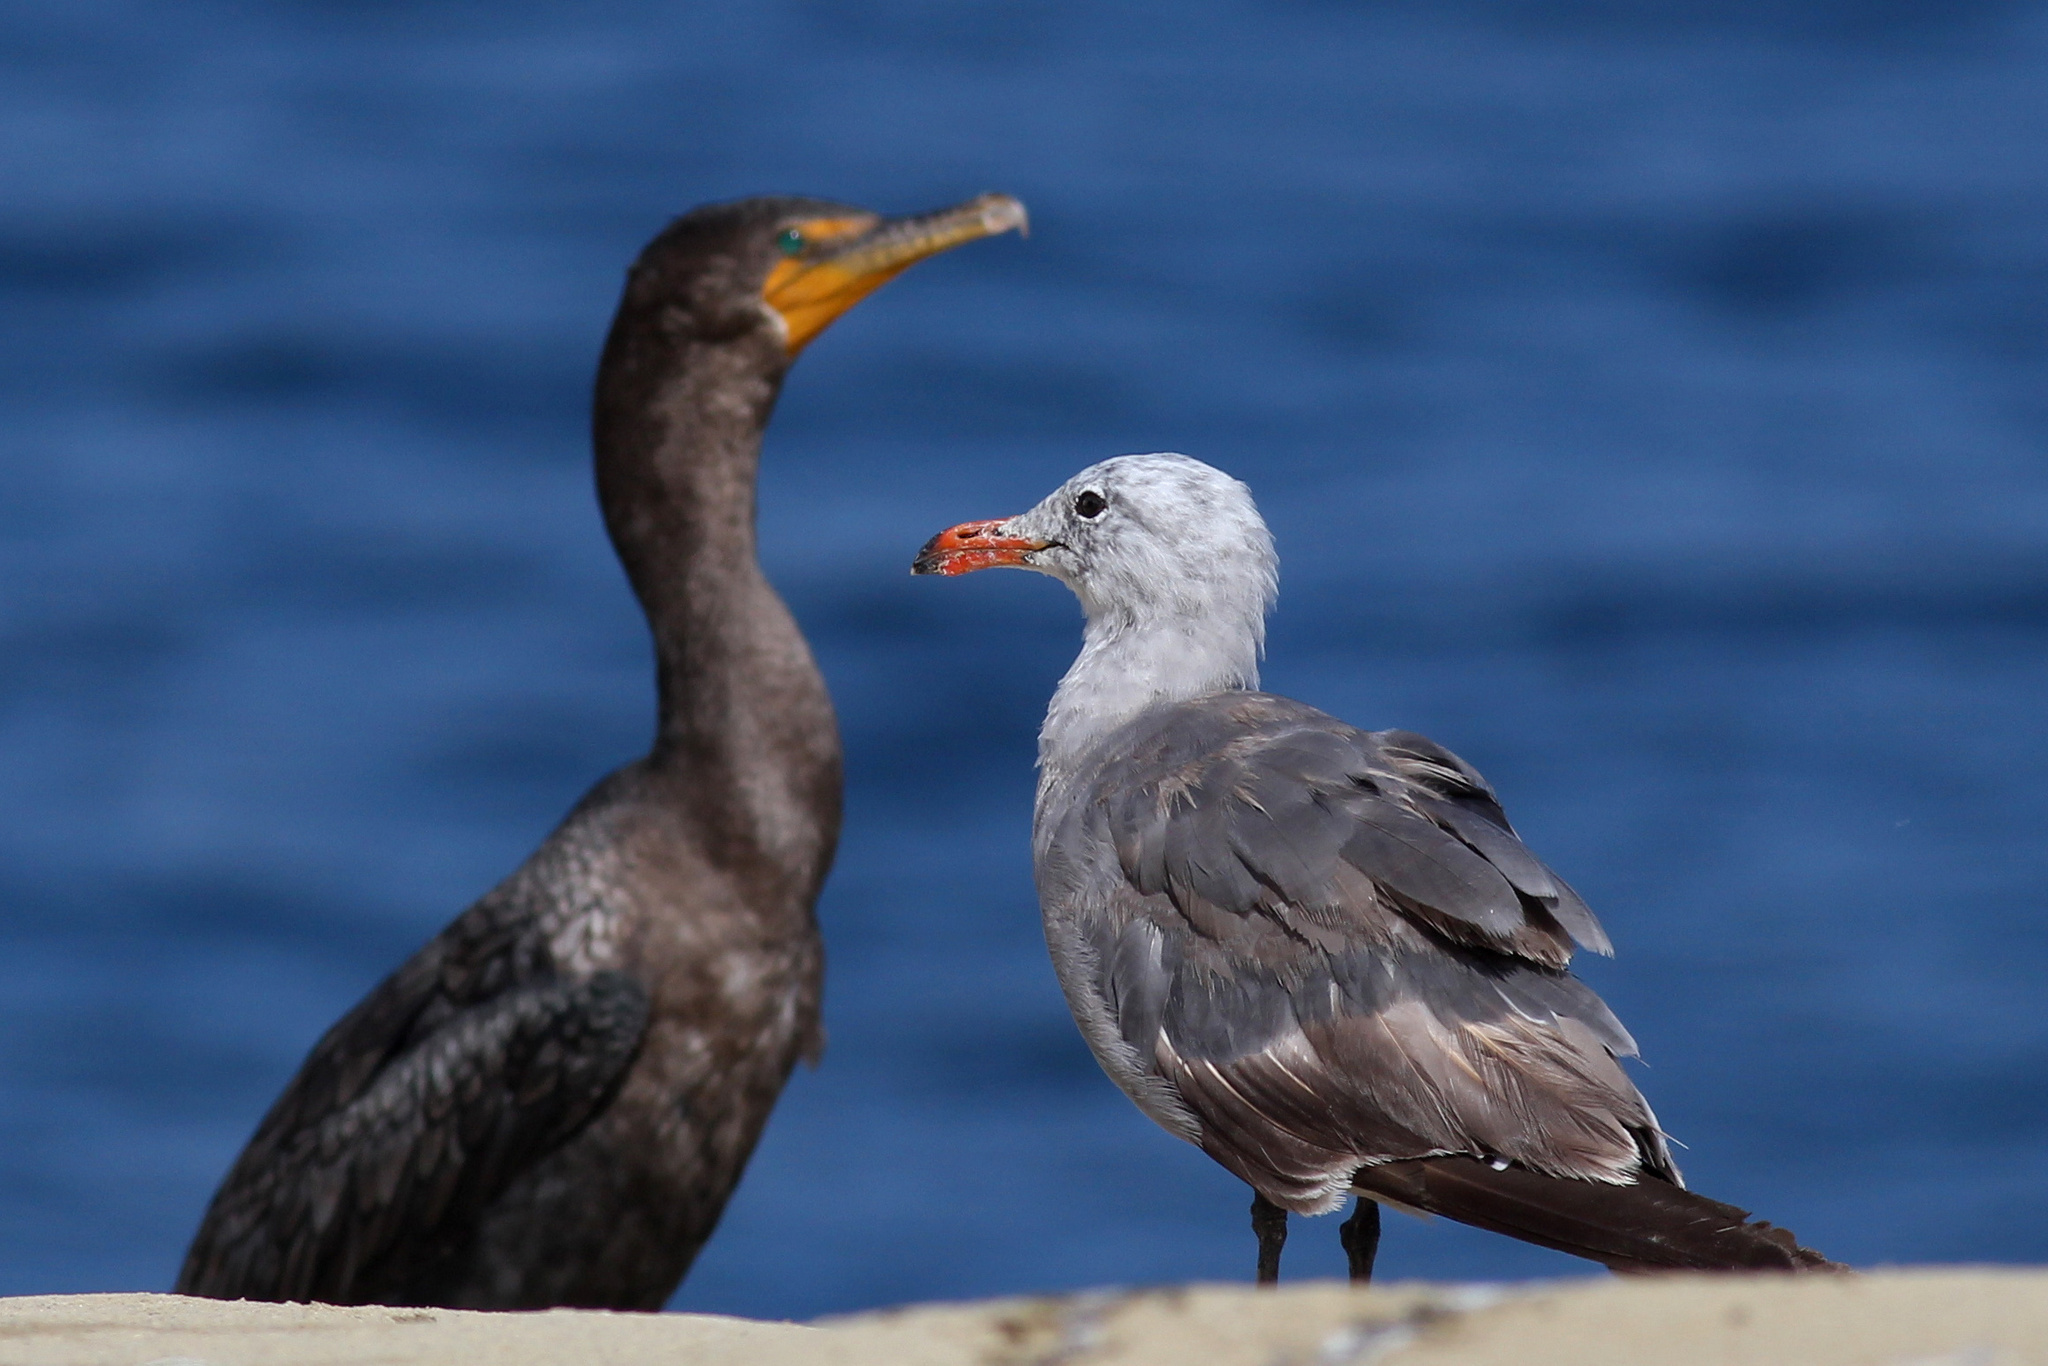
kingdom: Animalia
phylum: Chordata
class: Aves
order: Charadriiformes
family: Laridae
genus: Larus
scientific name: Larus heermanni
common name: Heermann's gull
